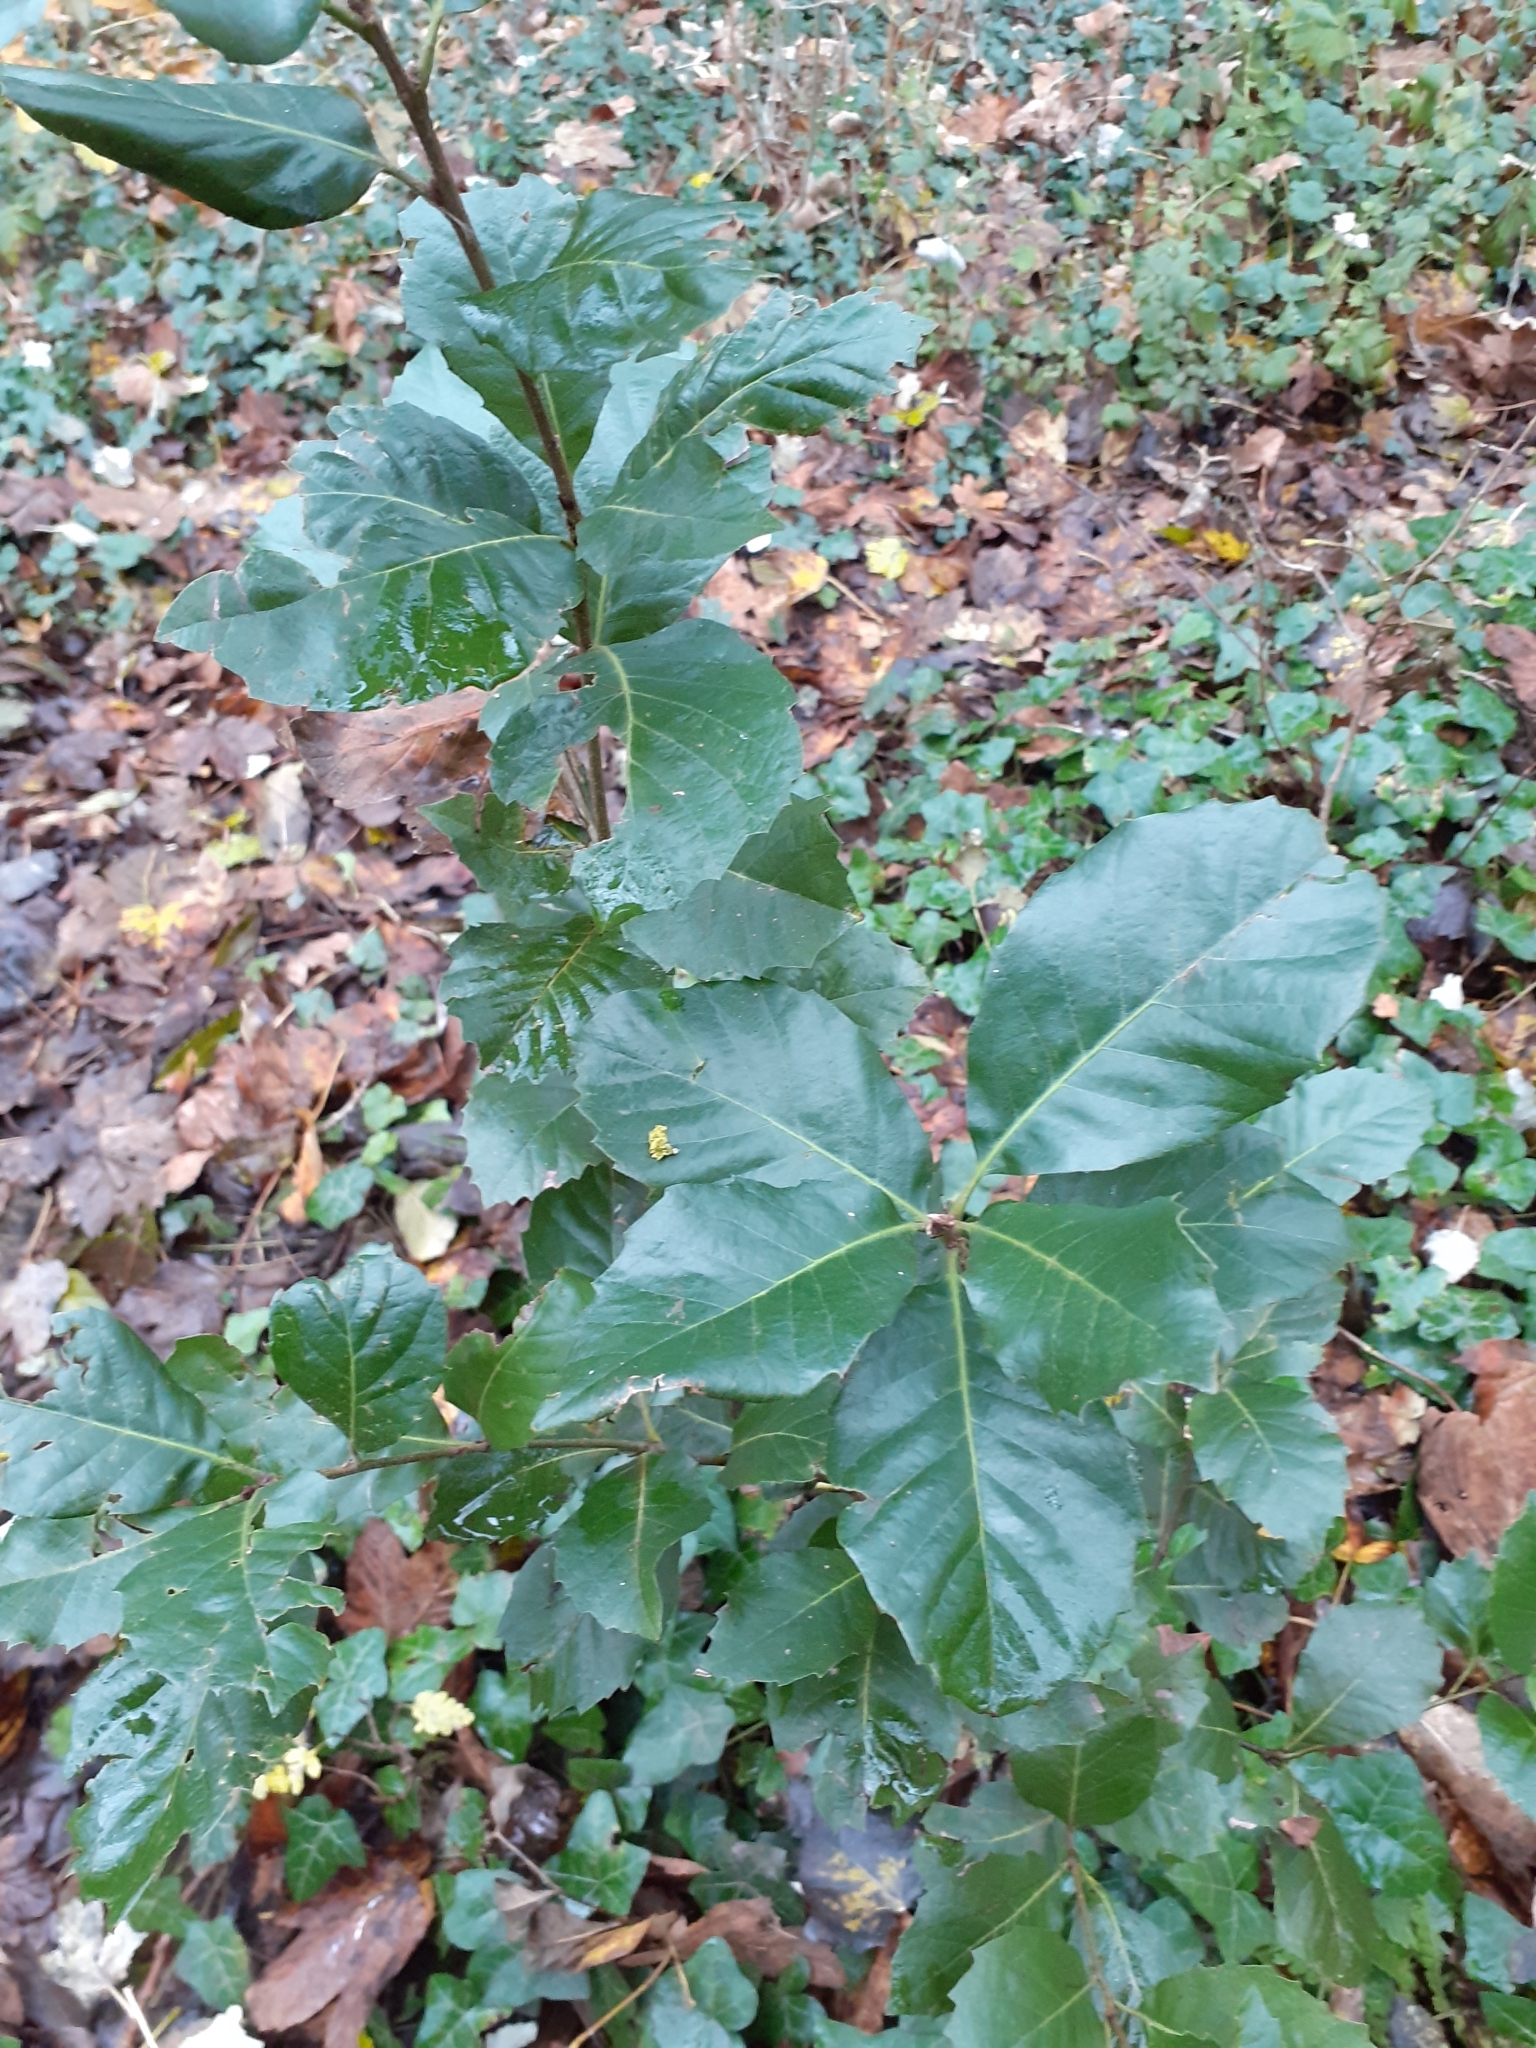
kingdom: Plantae
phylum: Tracheophyta
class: Magnoliopsida
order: Fagales
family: Fagaceae
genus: Quercus
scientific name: Quercus ilex
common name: Evergreen oak
